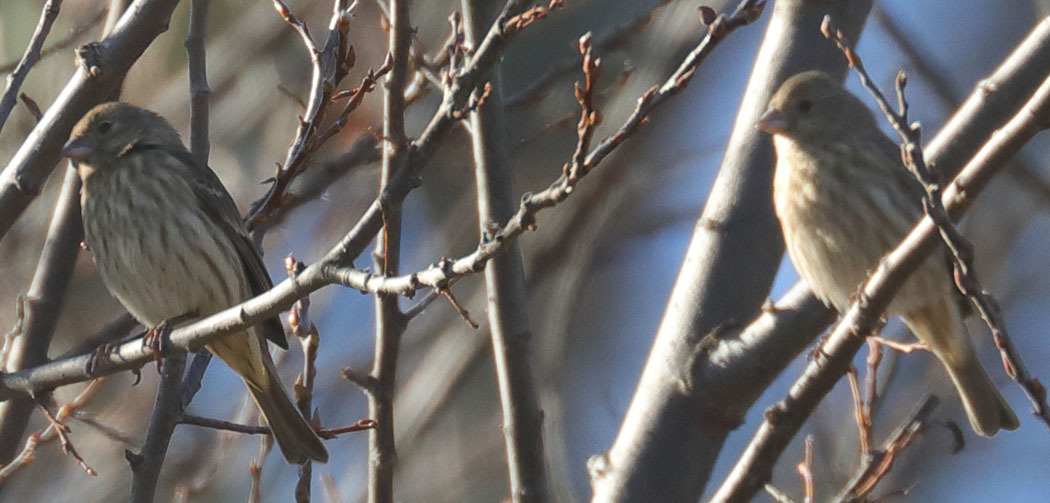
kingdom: Animalia
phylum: Chordata
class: Aves
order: Passeriformes
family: Fringillidae
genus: Haemorhous
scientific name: Haemorhous mexicanus
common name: House finch
